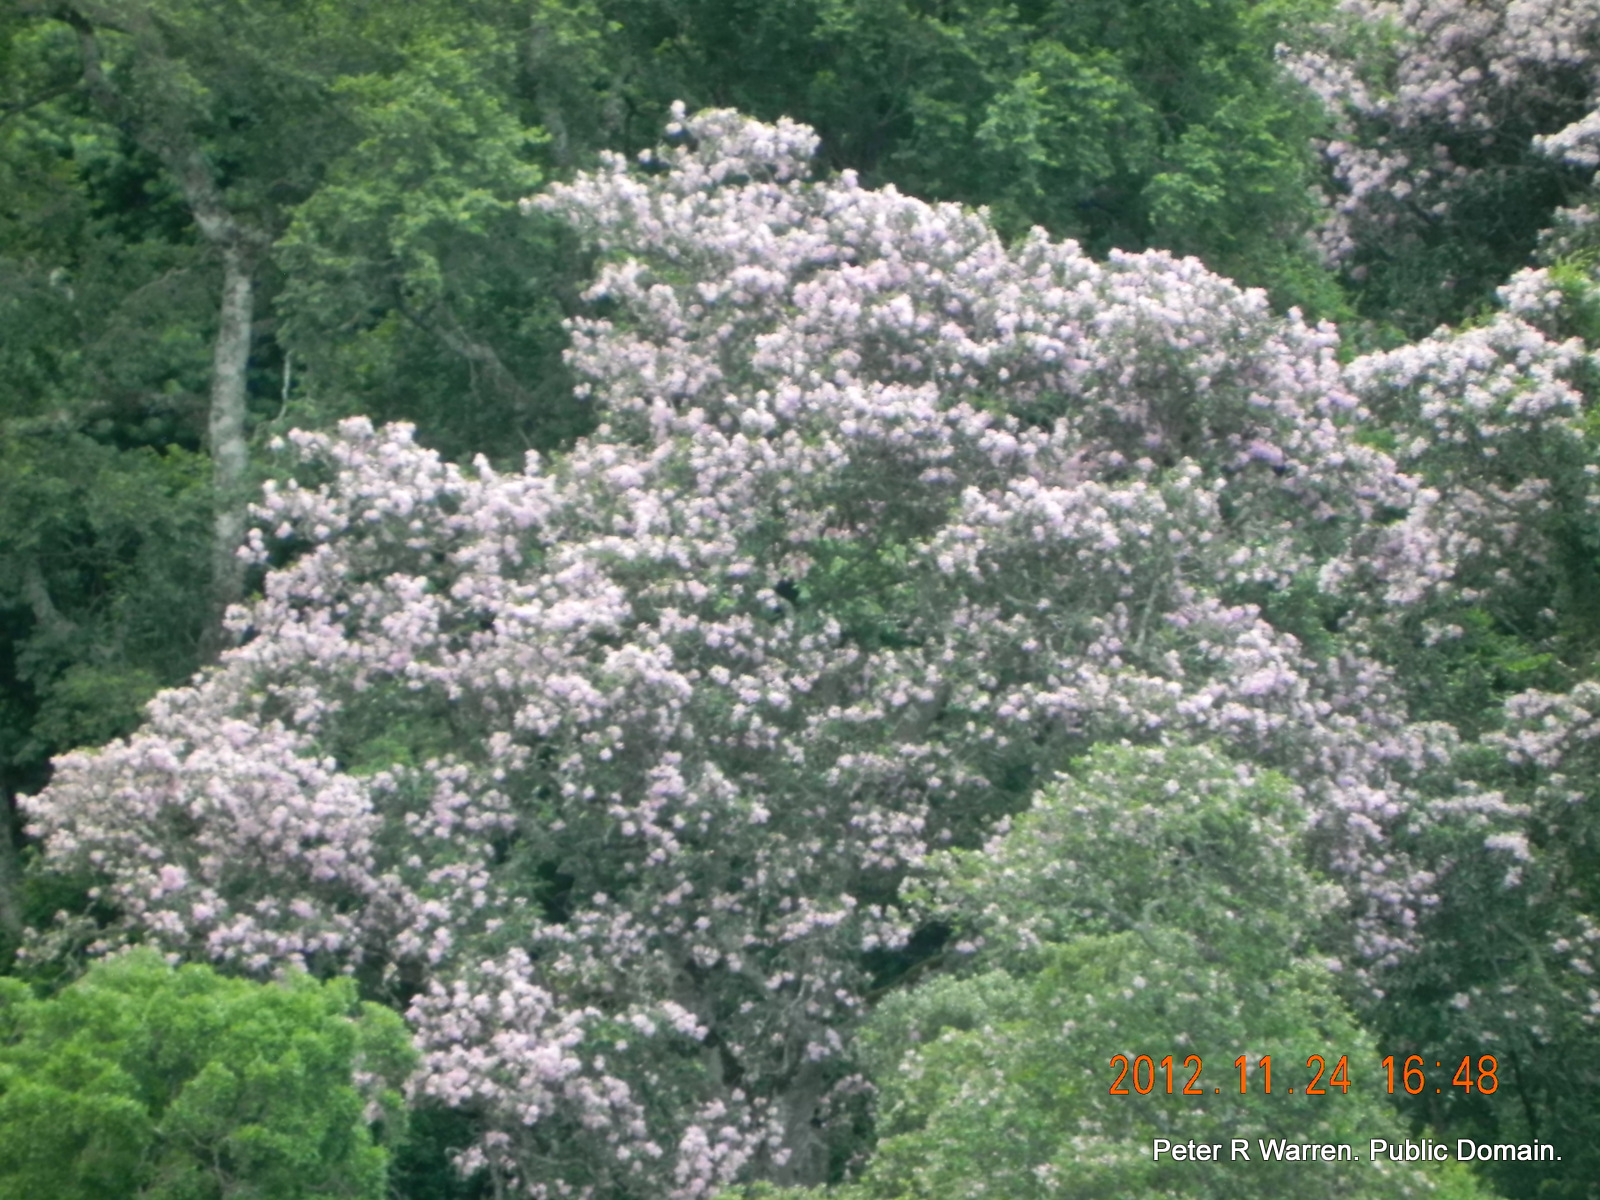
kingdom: Plantae
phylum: Tracheophyta
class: Magnoliopsida
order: Sapindales
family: Rutaceae
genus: Calodendrum
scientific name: Calodendrum capense
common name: Cape chestnut
